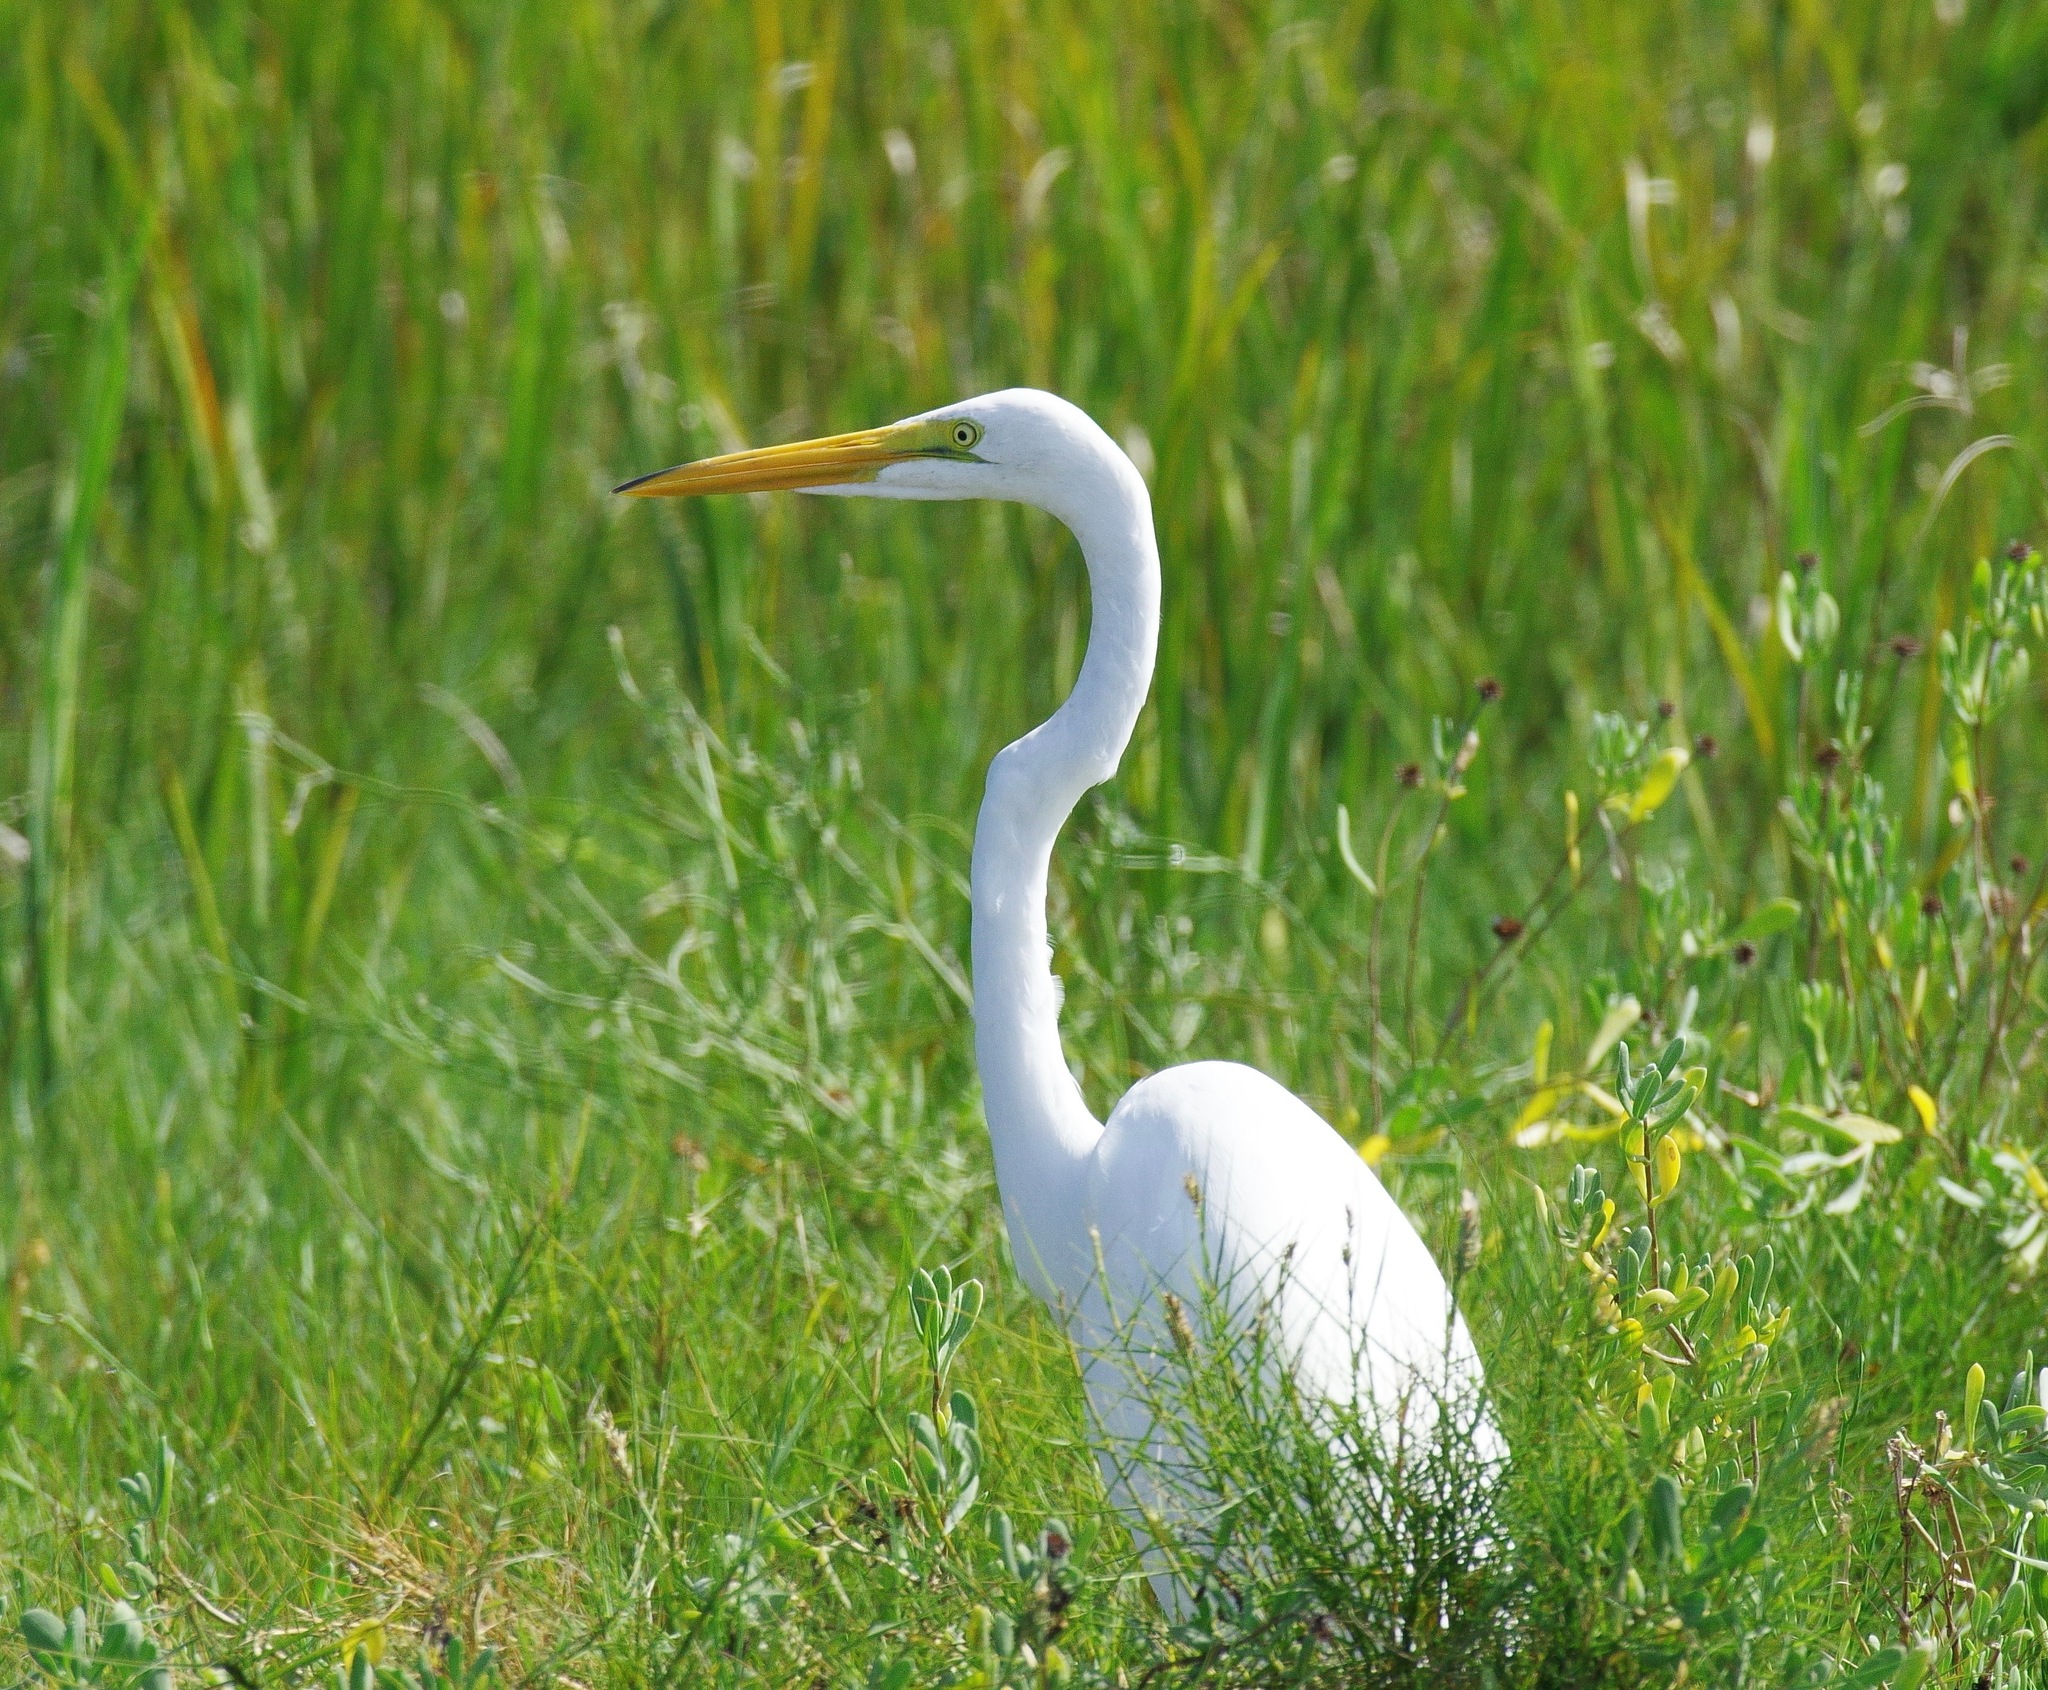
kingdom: Animalia
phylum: Chordata
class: Aves
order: Pelecaniformes
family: Ardeidae
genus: Ardea
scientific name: Ardea alba
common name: Great egret
